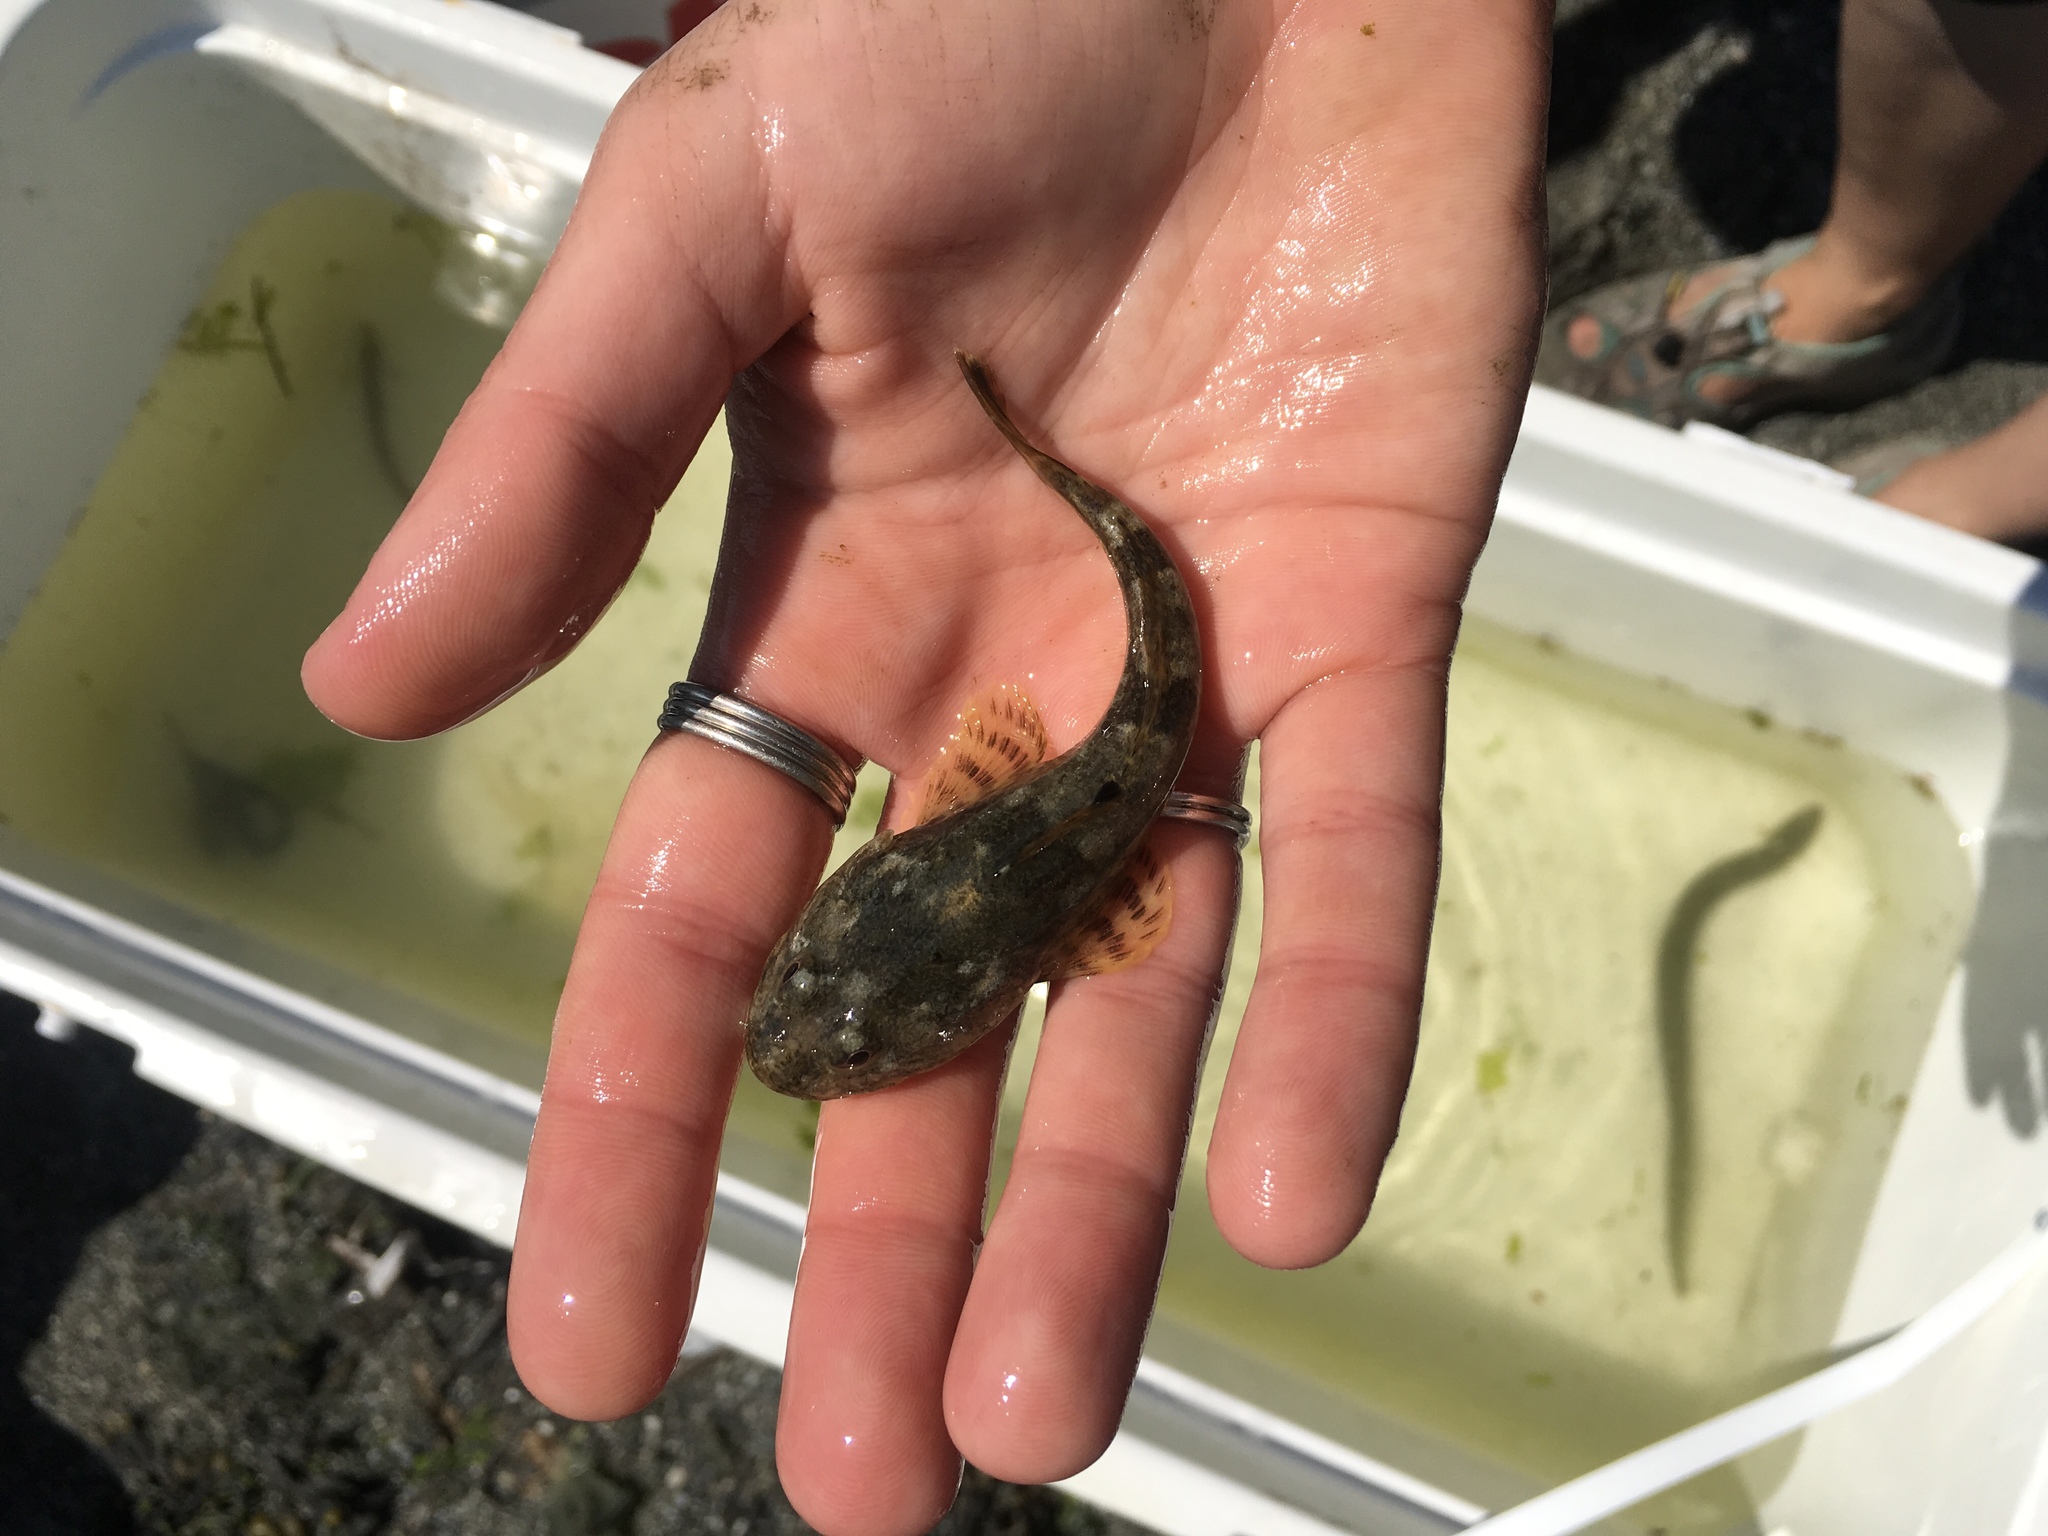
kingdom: Animalia
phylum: Chordata
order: Scorpaeniformes
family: Cottidae
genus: Leptocottus
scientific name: Leptocottus armatus
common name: Pacific staghorn sculpin
